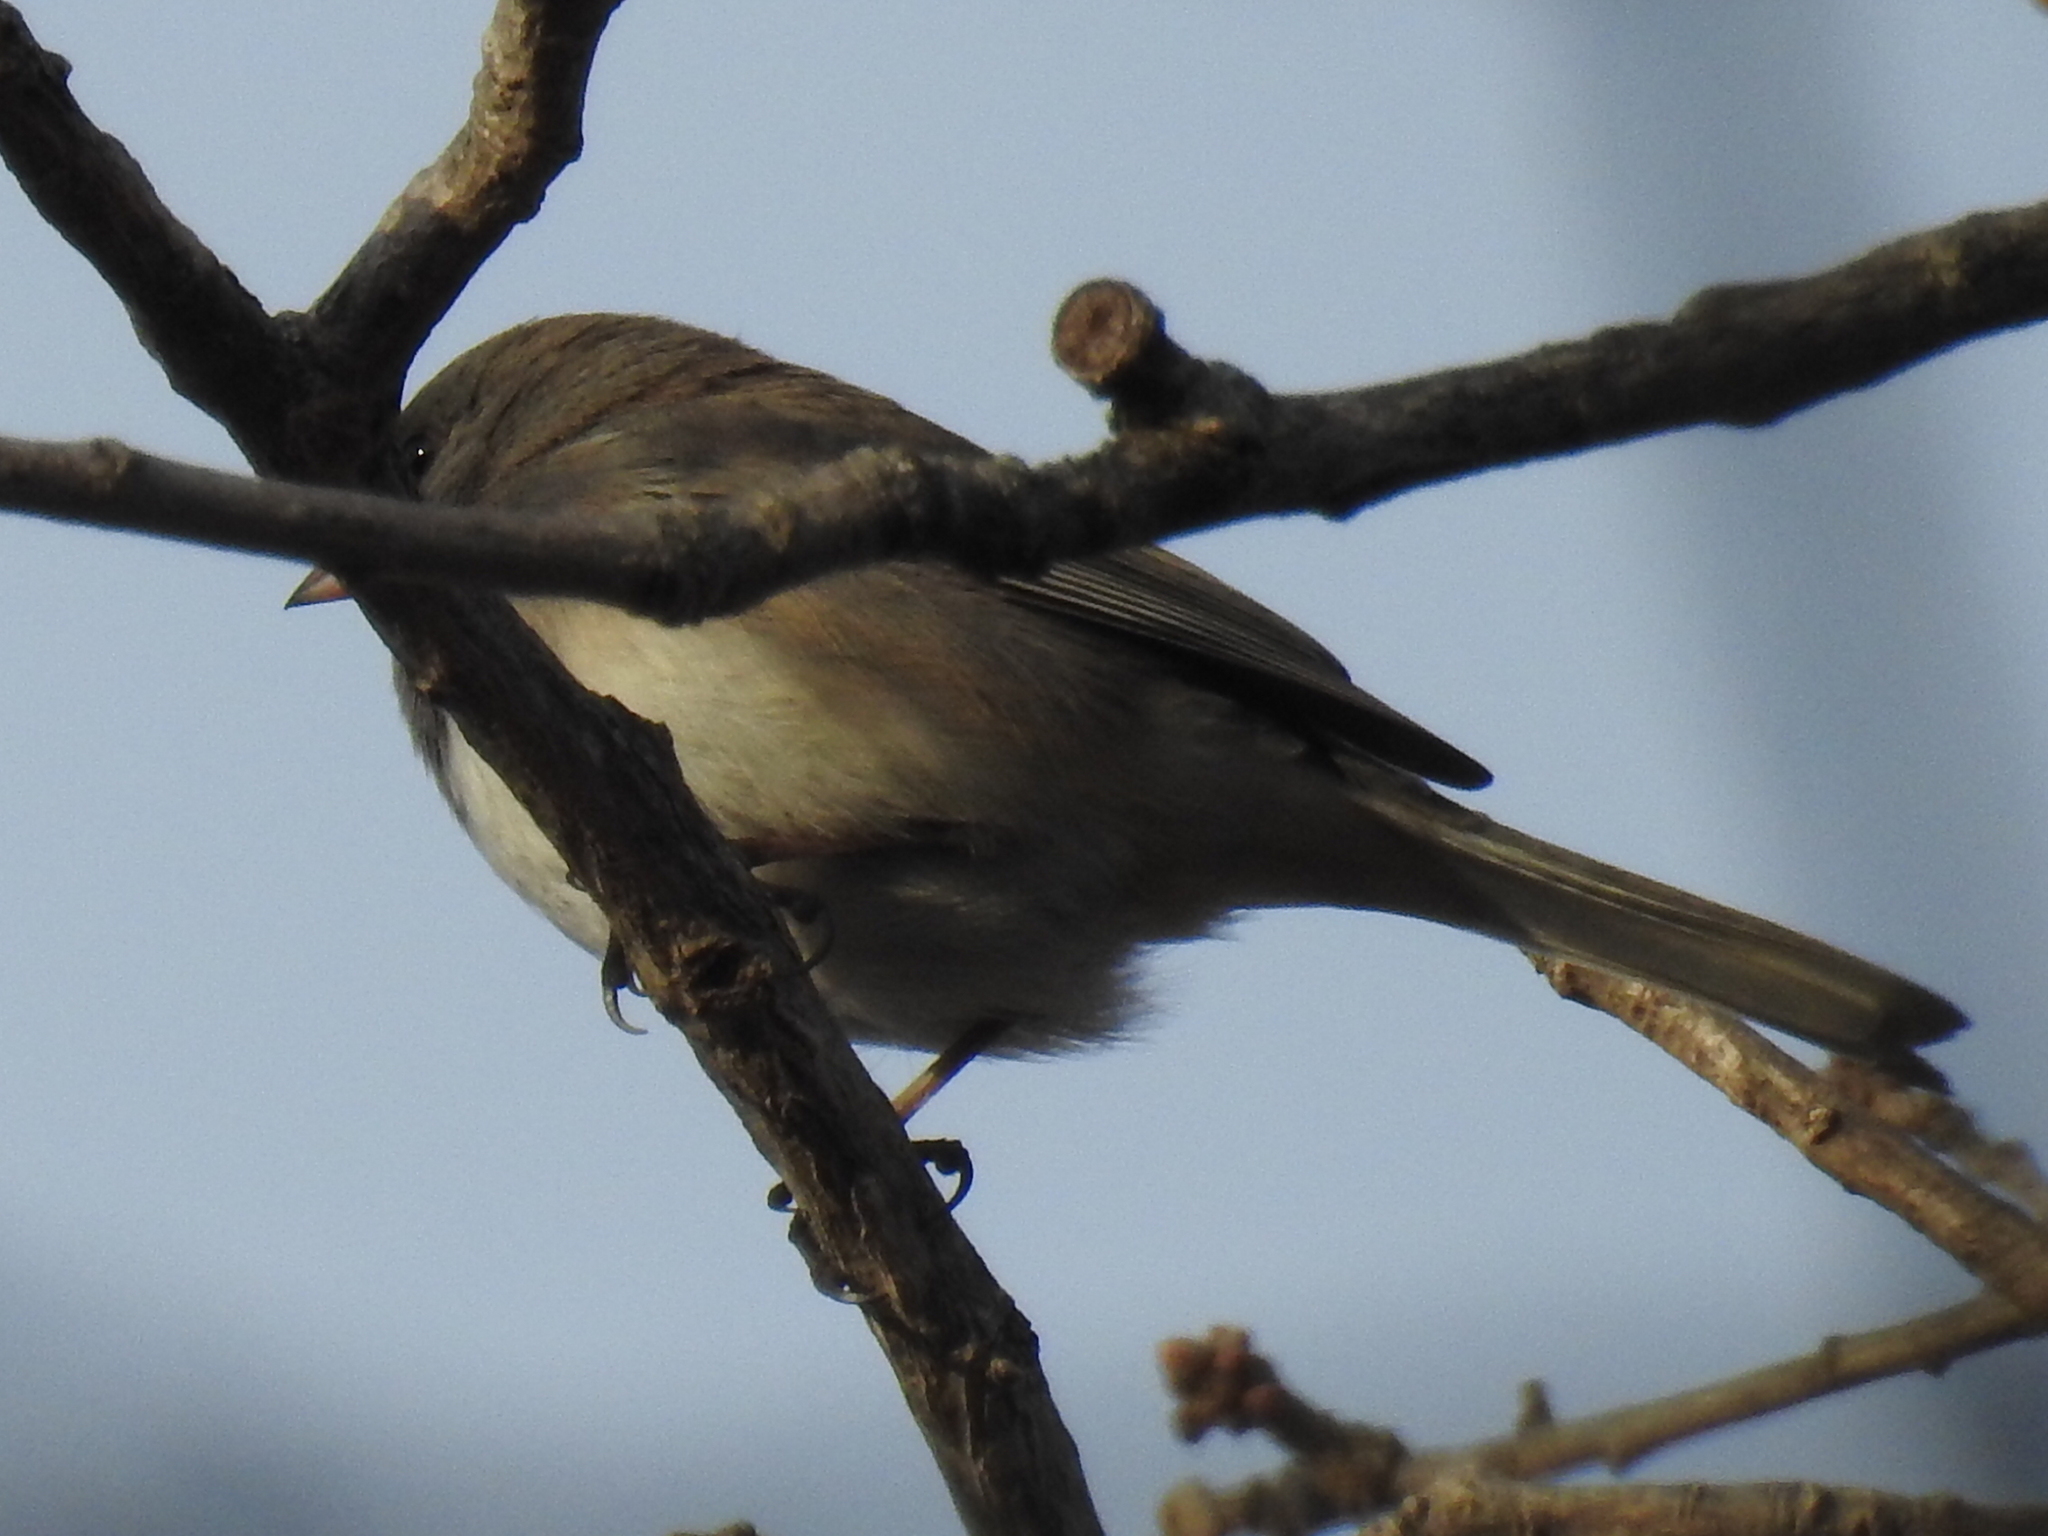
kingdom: Animalia
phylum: Chordata
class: Aves
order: Passeriformes
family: Passerellidae
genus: Junco
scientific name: Junco hyemalis
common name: Dark-eyed junco
